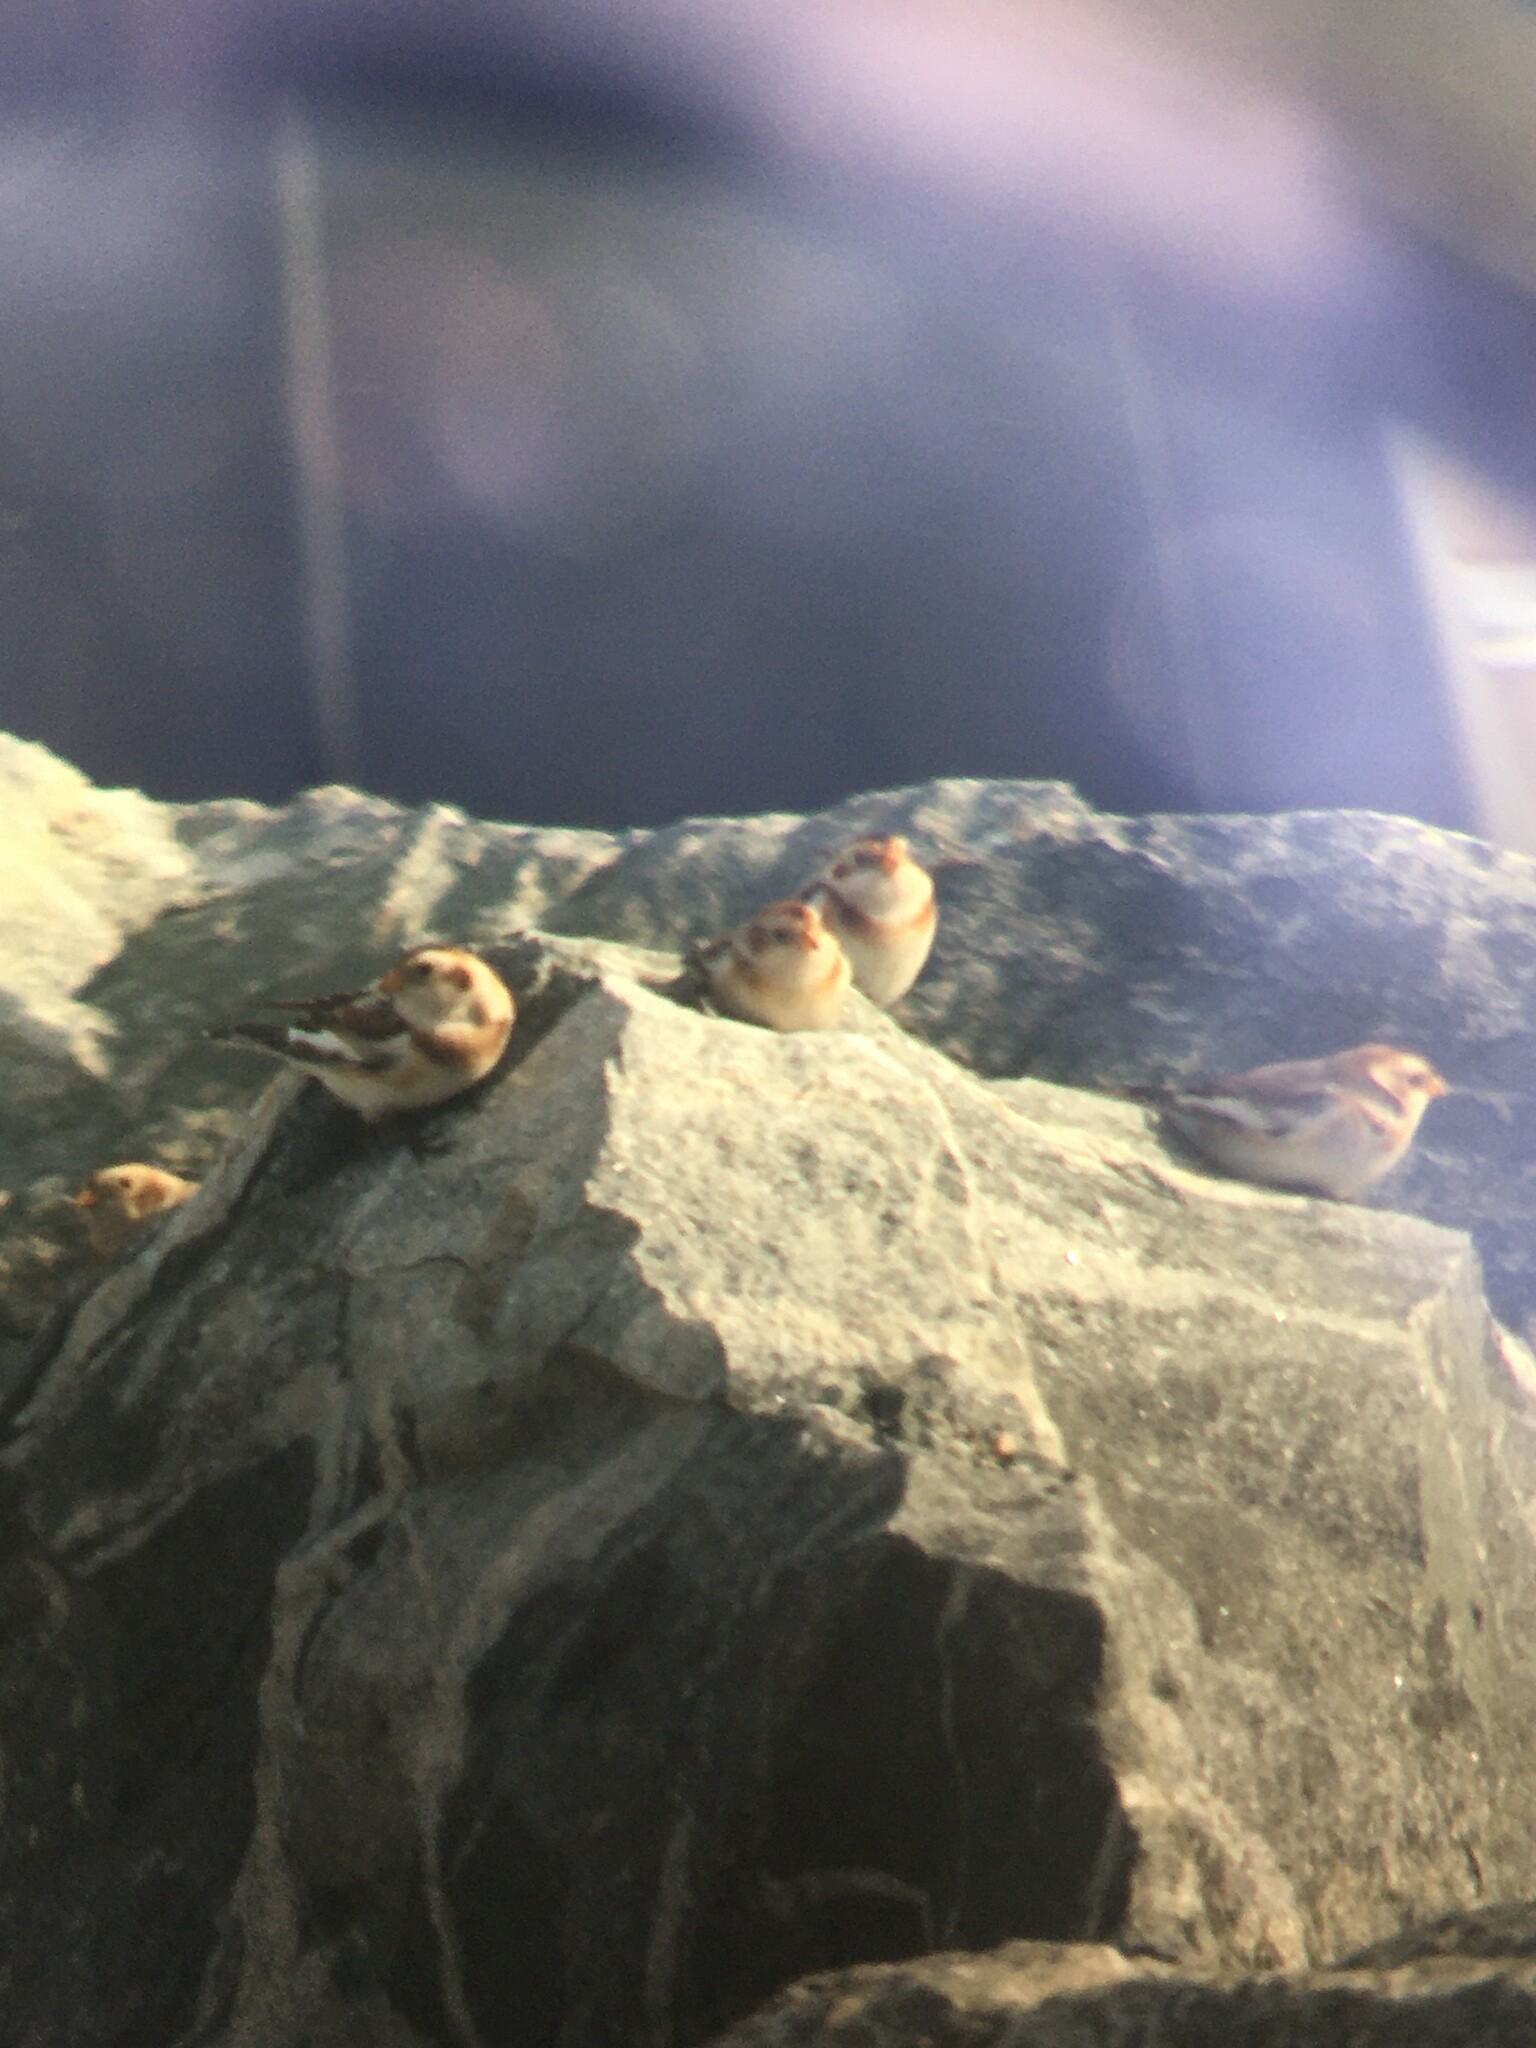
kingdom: Animalia
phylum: Chordata
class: Aves
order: Passeriformes
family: Calcariidae
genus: Plectrophenax
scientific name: Plectrophenax nivalis
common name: Snow bunting
